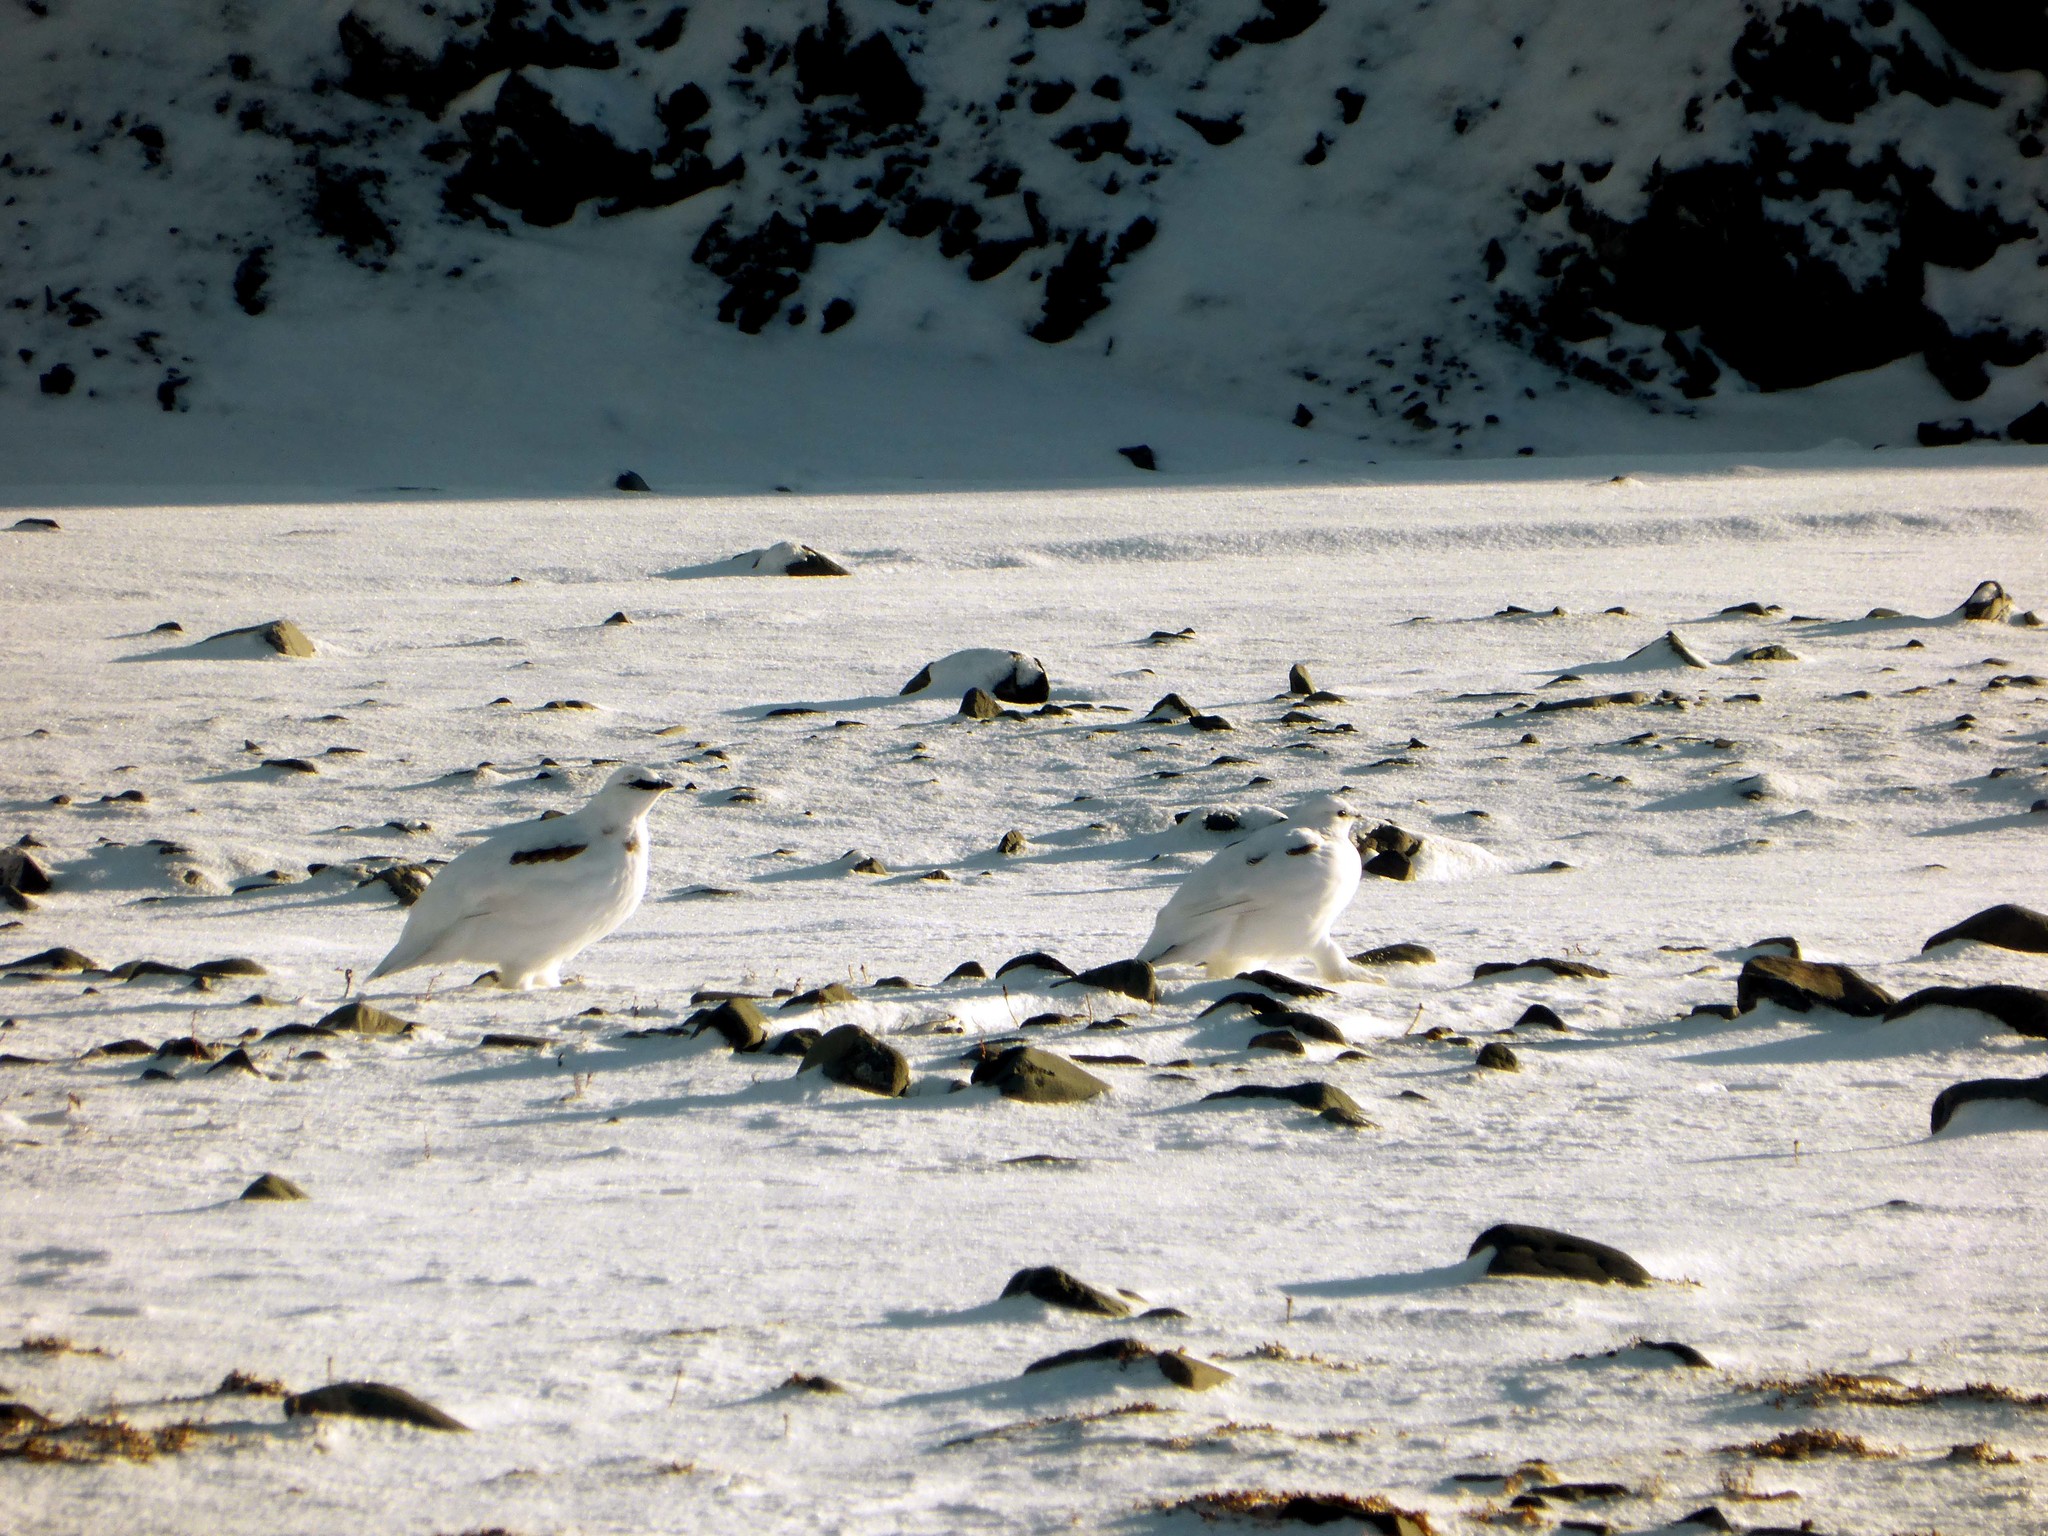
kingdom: Animalia
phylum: Chordata
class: Aves
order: Galliformes
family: Phasianidae
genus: Lagopus
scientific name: Lagopus muta
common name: Rock ptarmigan
